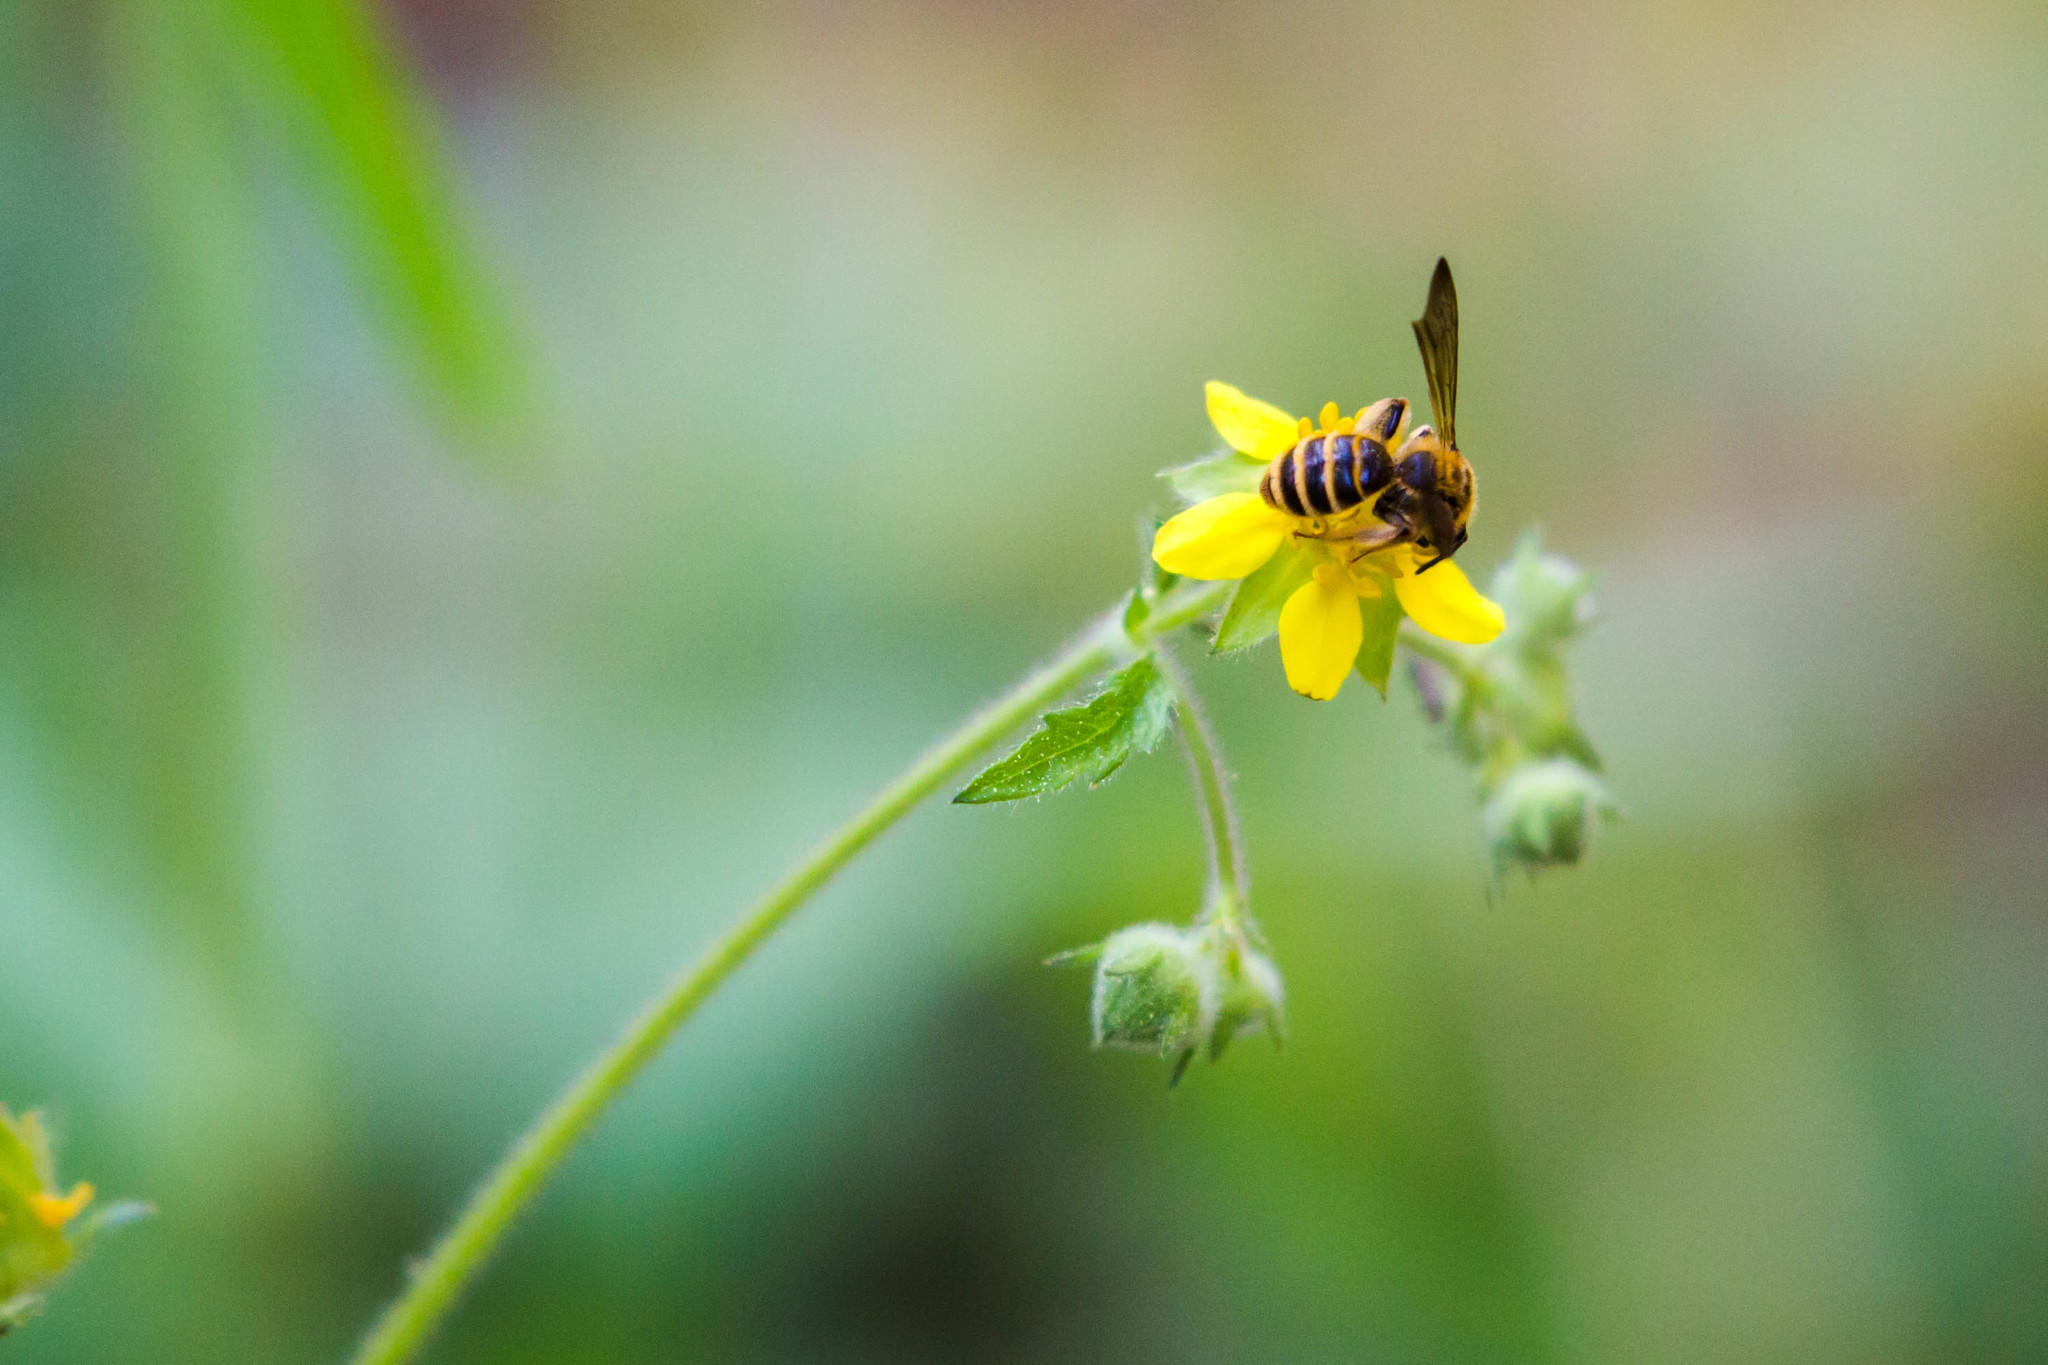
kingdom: Animalia
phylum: Arthropoda
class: Insecta
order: Hymenoptera
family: Andrenidae
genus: Andrena
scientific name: Andrena auricoma
